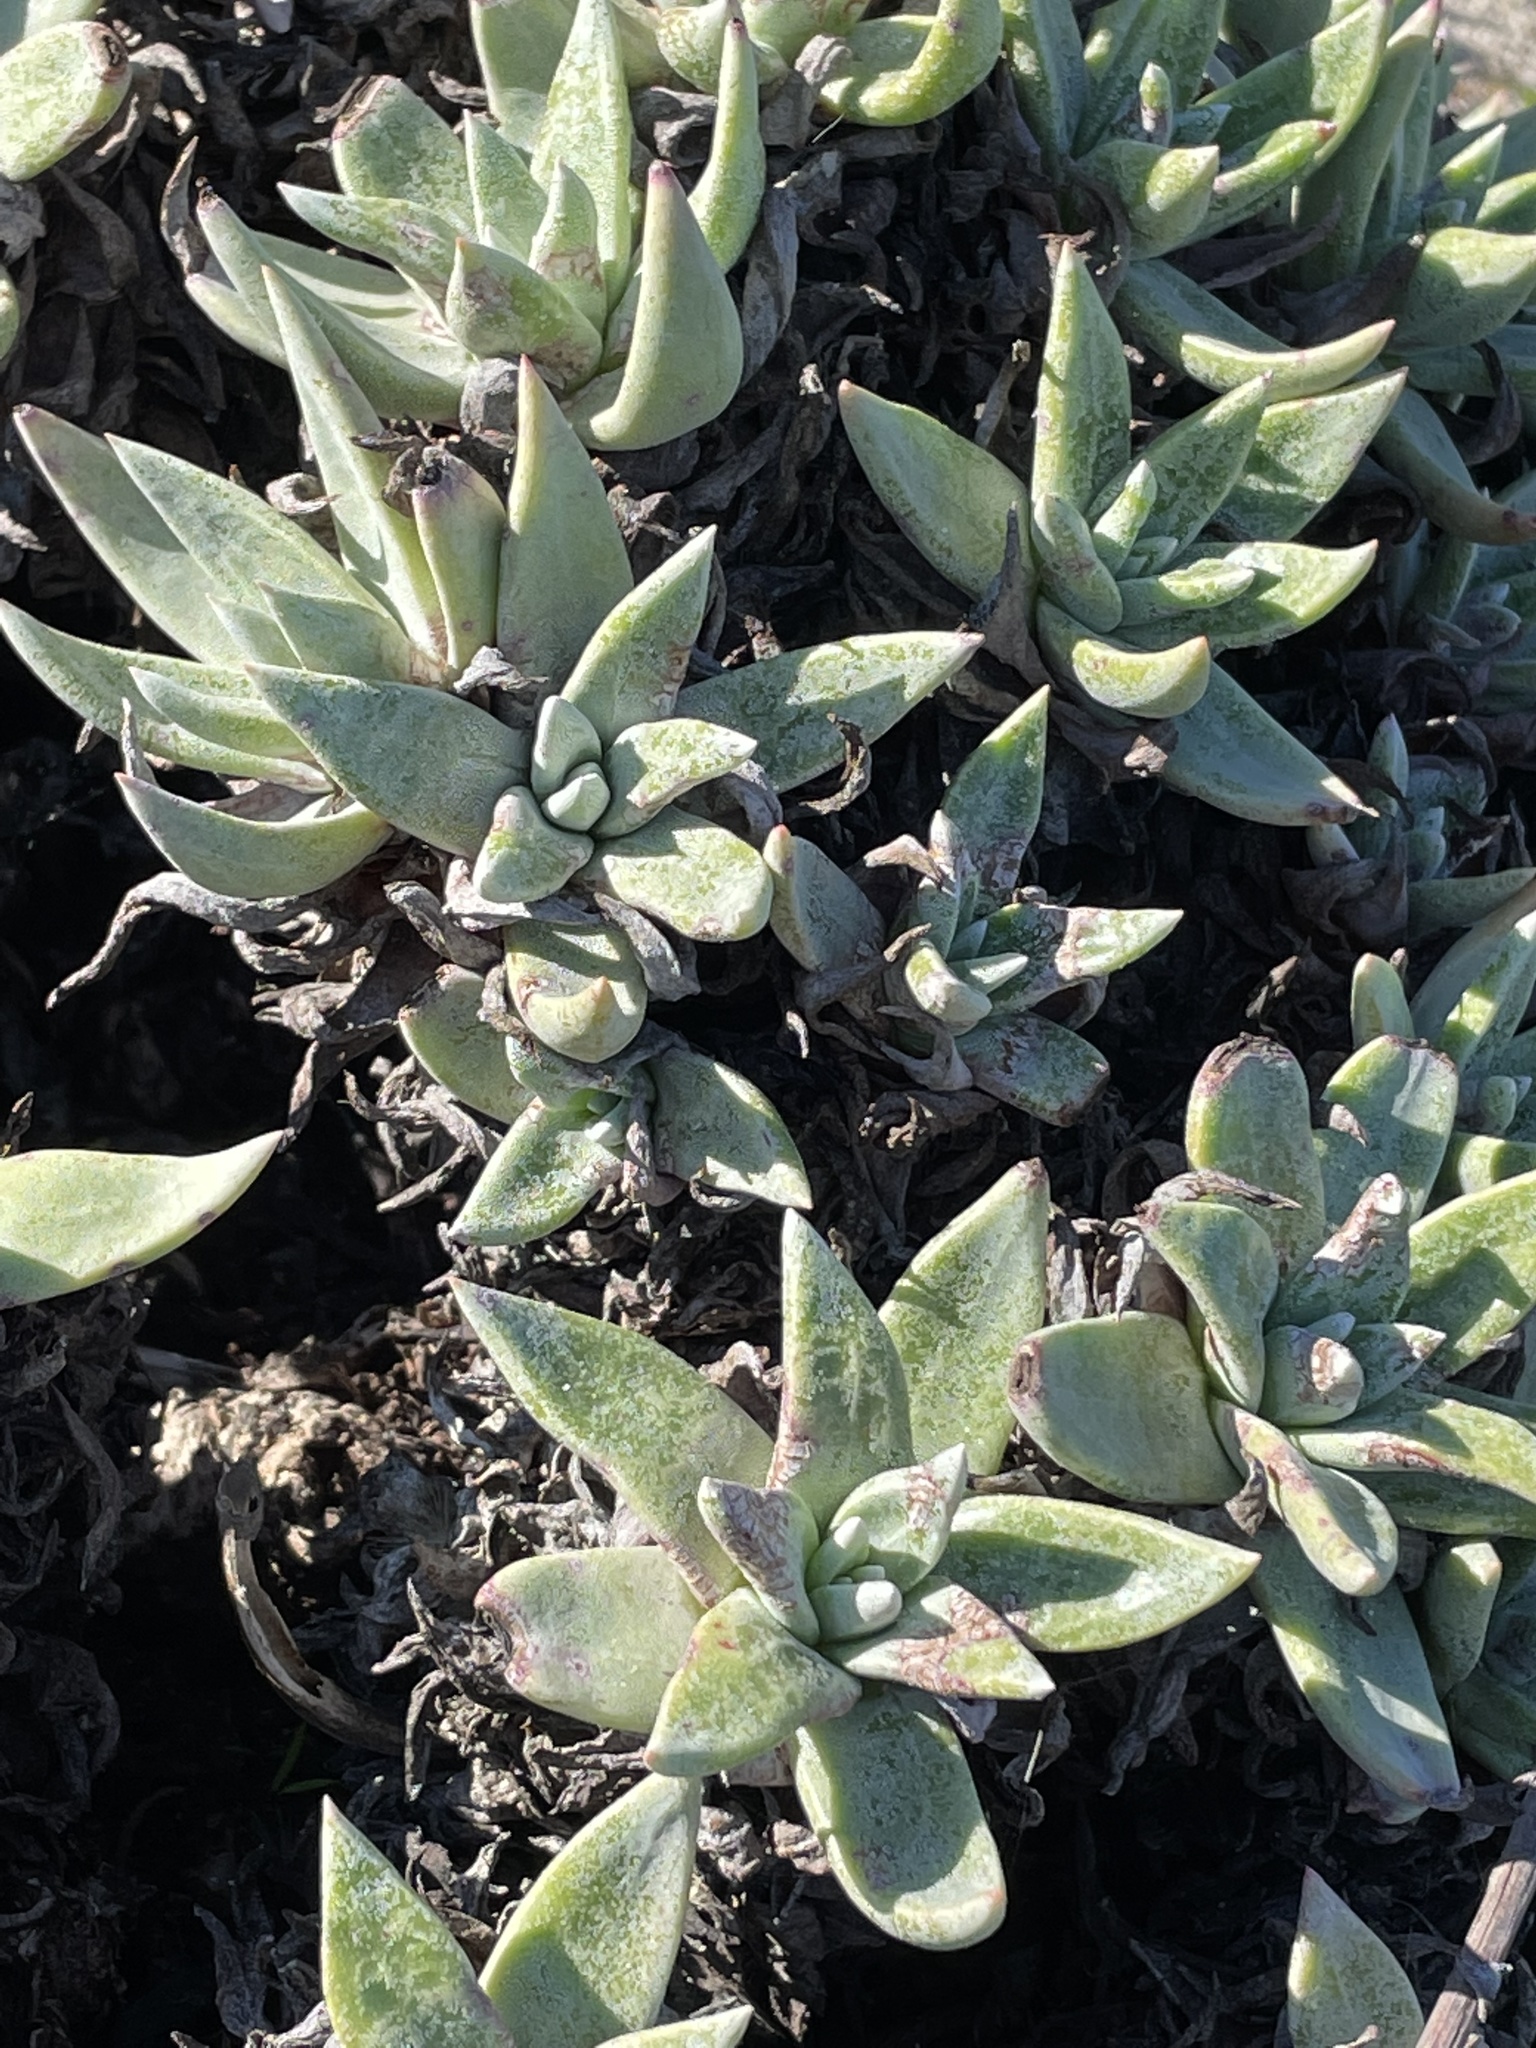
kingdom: Plantae
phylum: Tracheophyta
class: Magnoliopsida
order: Saxifragales
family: Crassulaceae
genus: Dudleya
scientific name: Dudleya caespitosa
